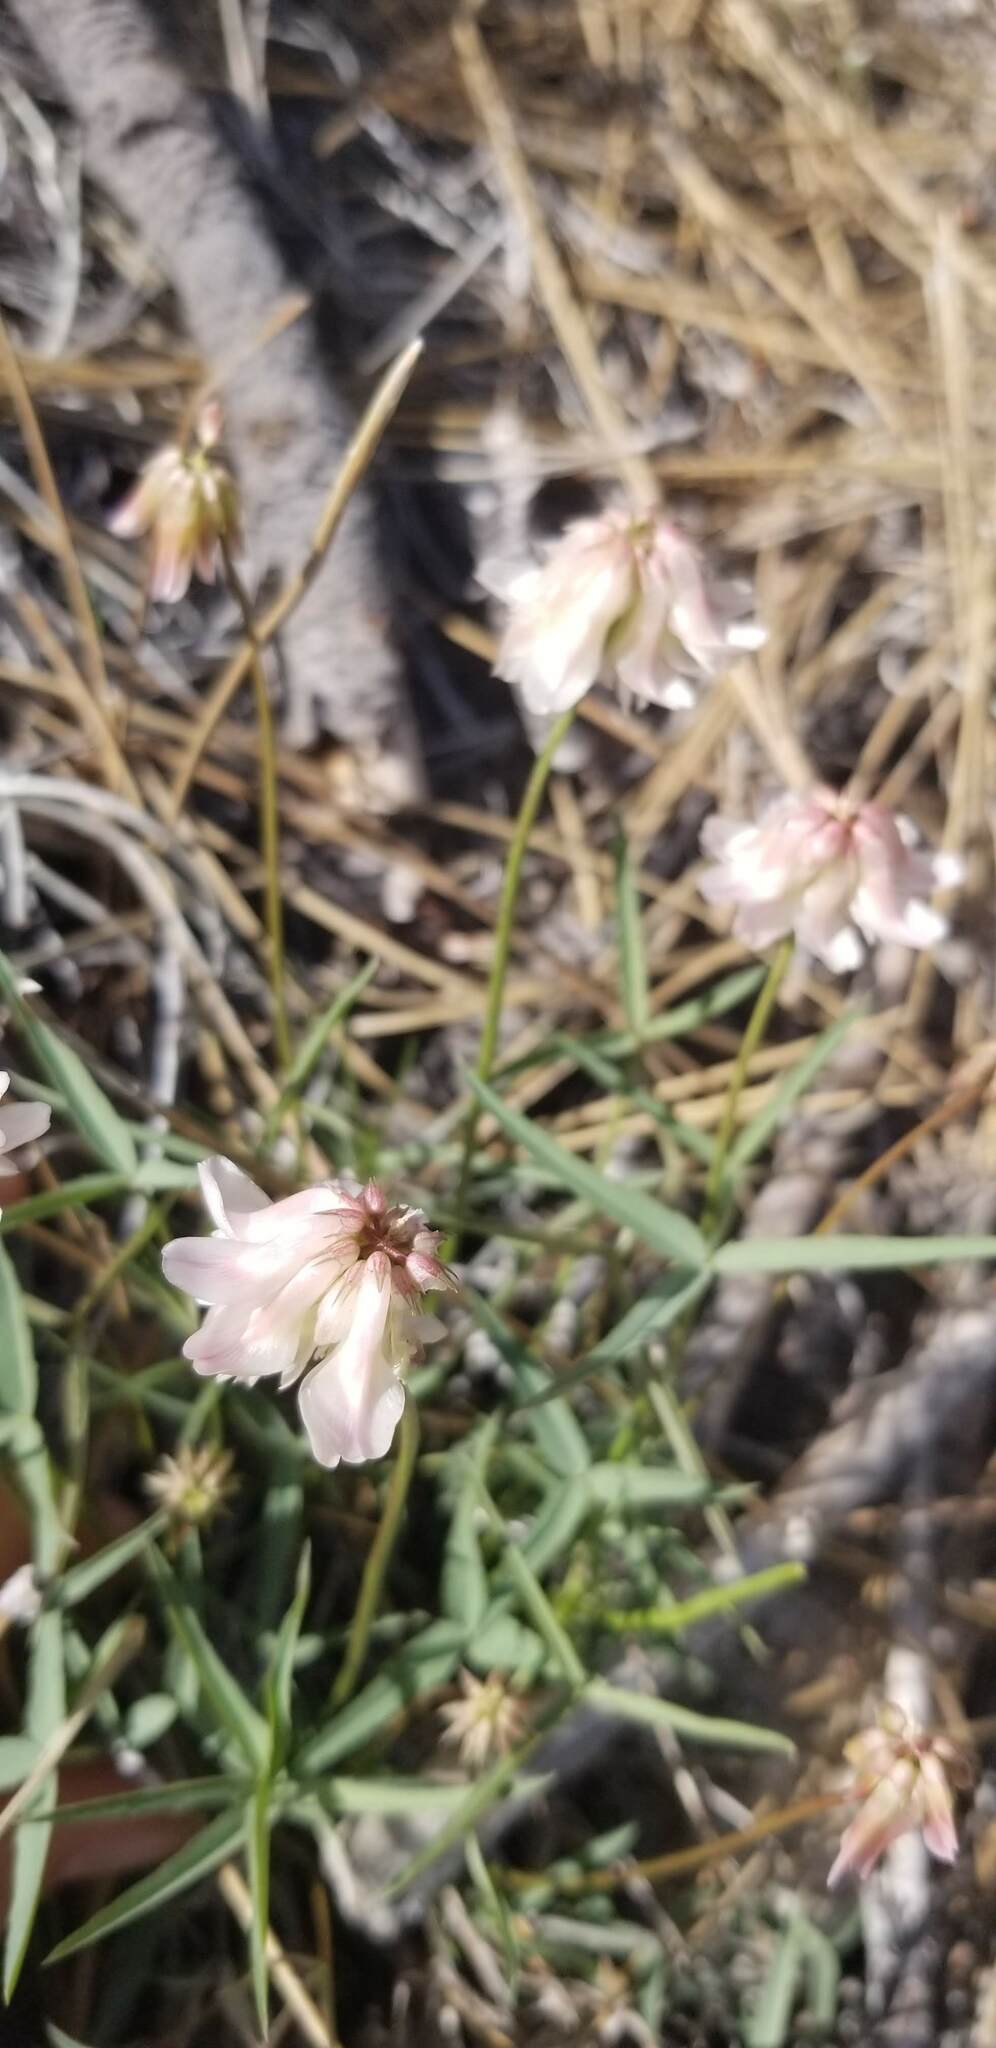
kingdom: Plantae
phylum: Tracheophyta
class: Magnoliopsida
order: Fabales
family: Fabaceae
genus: Trifolium
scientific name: Trifolium dedeckerae
